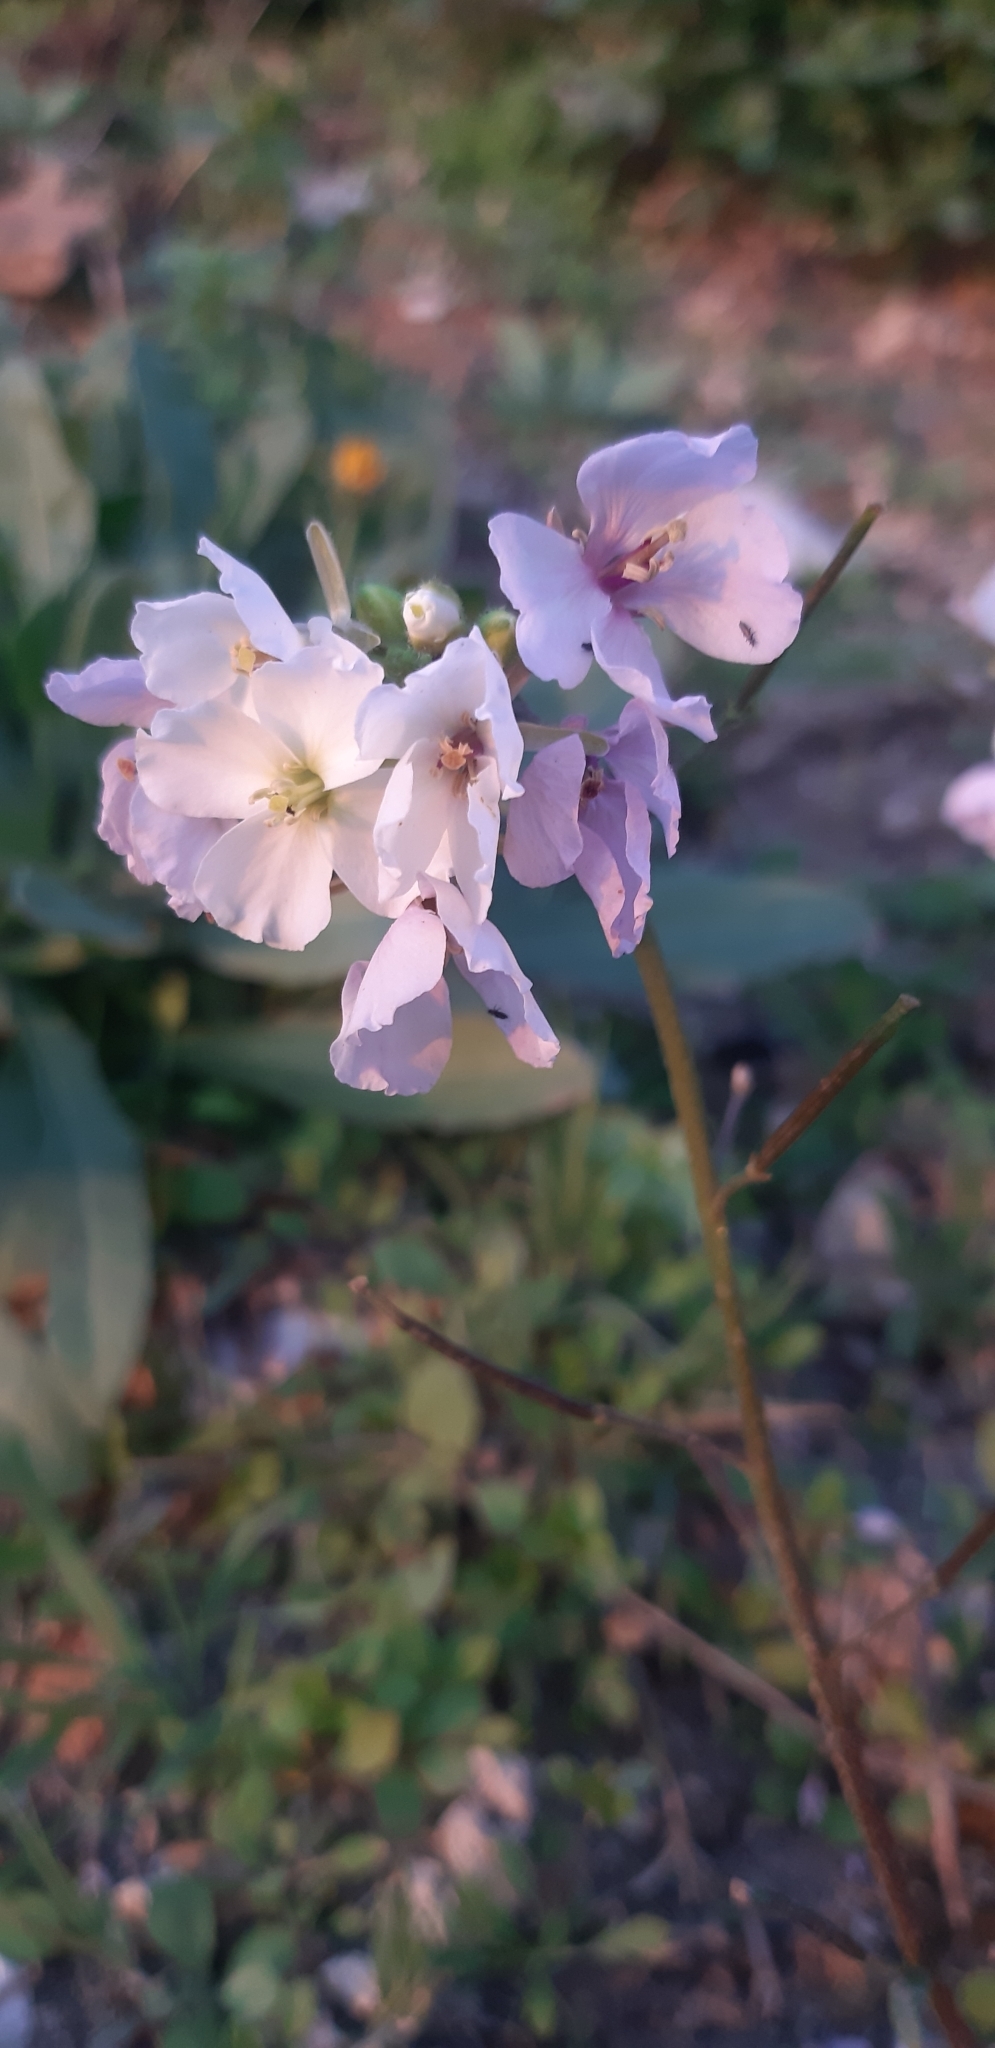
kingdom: Plantae
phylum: Tracheophyta
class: Magnoliopsida
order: Brassicales
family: Brassicaceae
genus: Diplotaxis
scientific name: Diplotaxis erucoides
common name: White rocket
